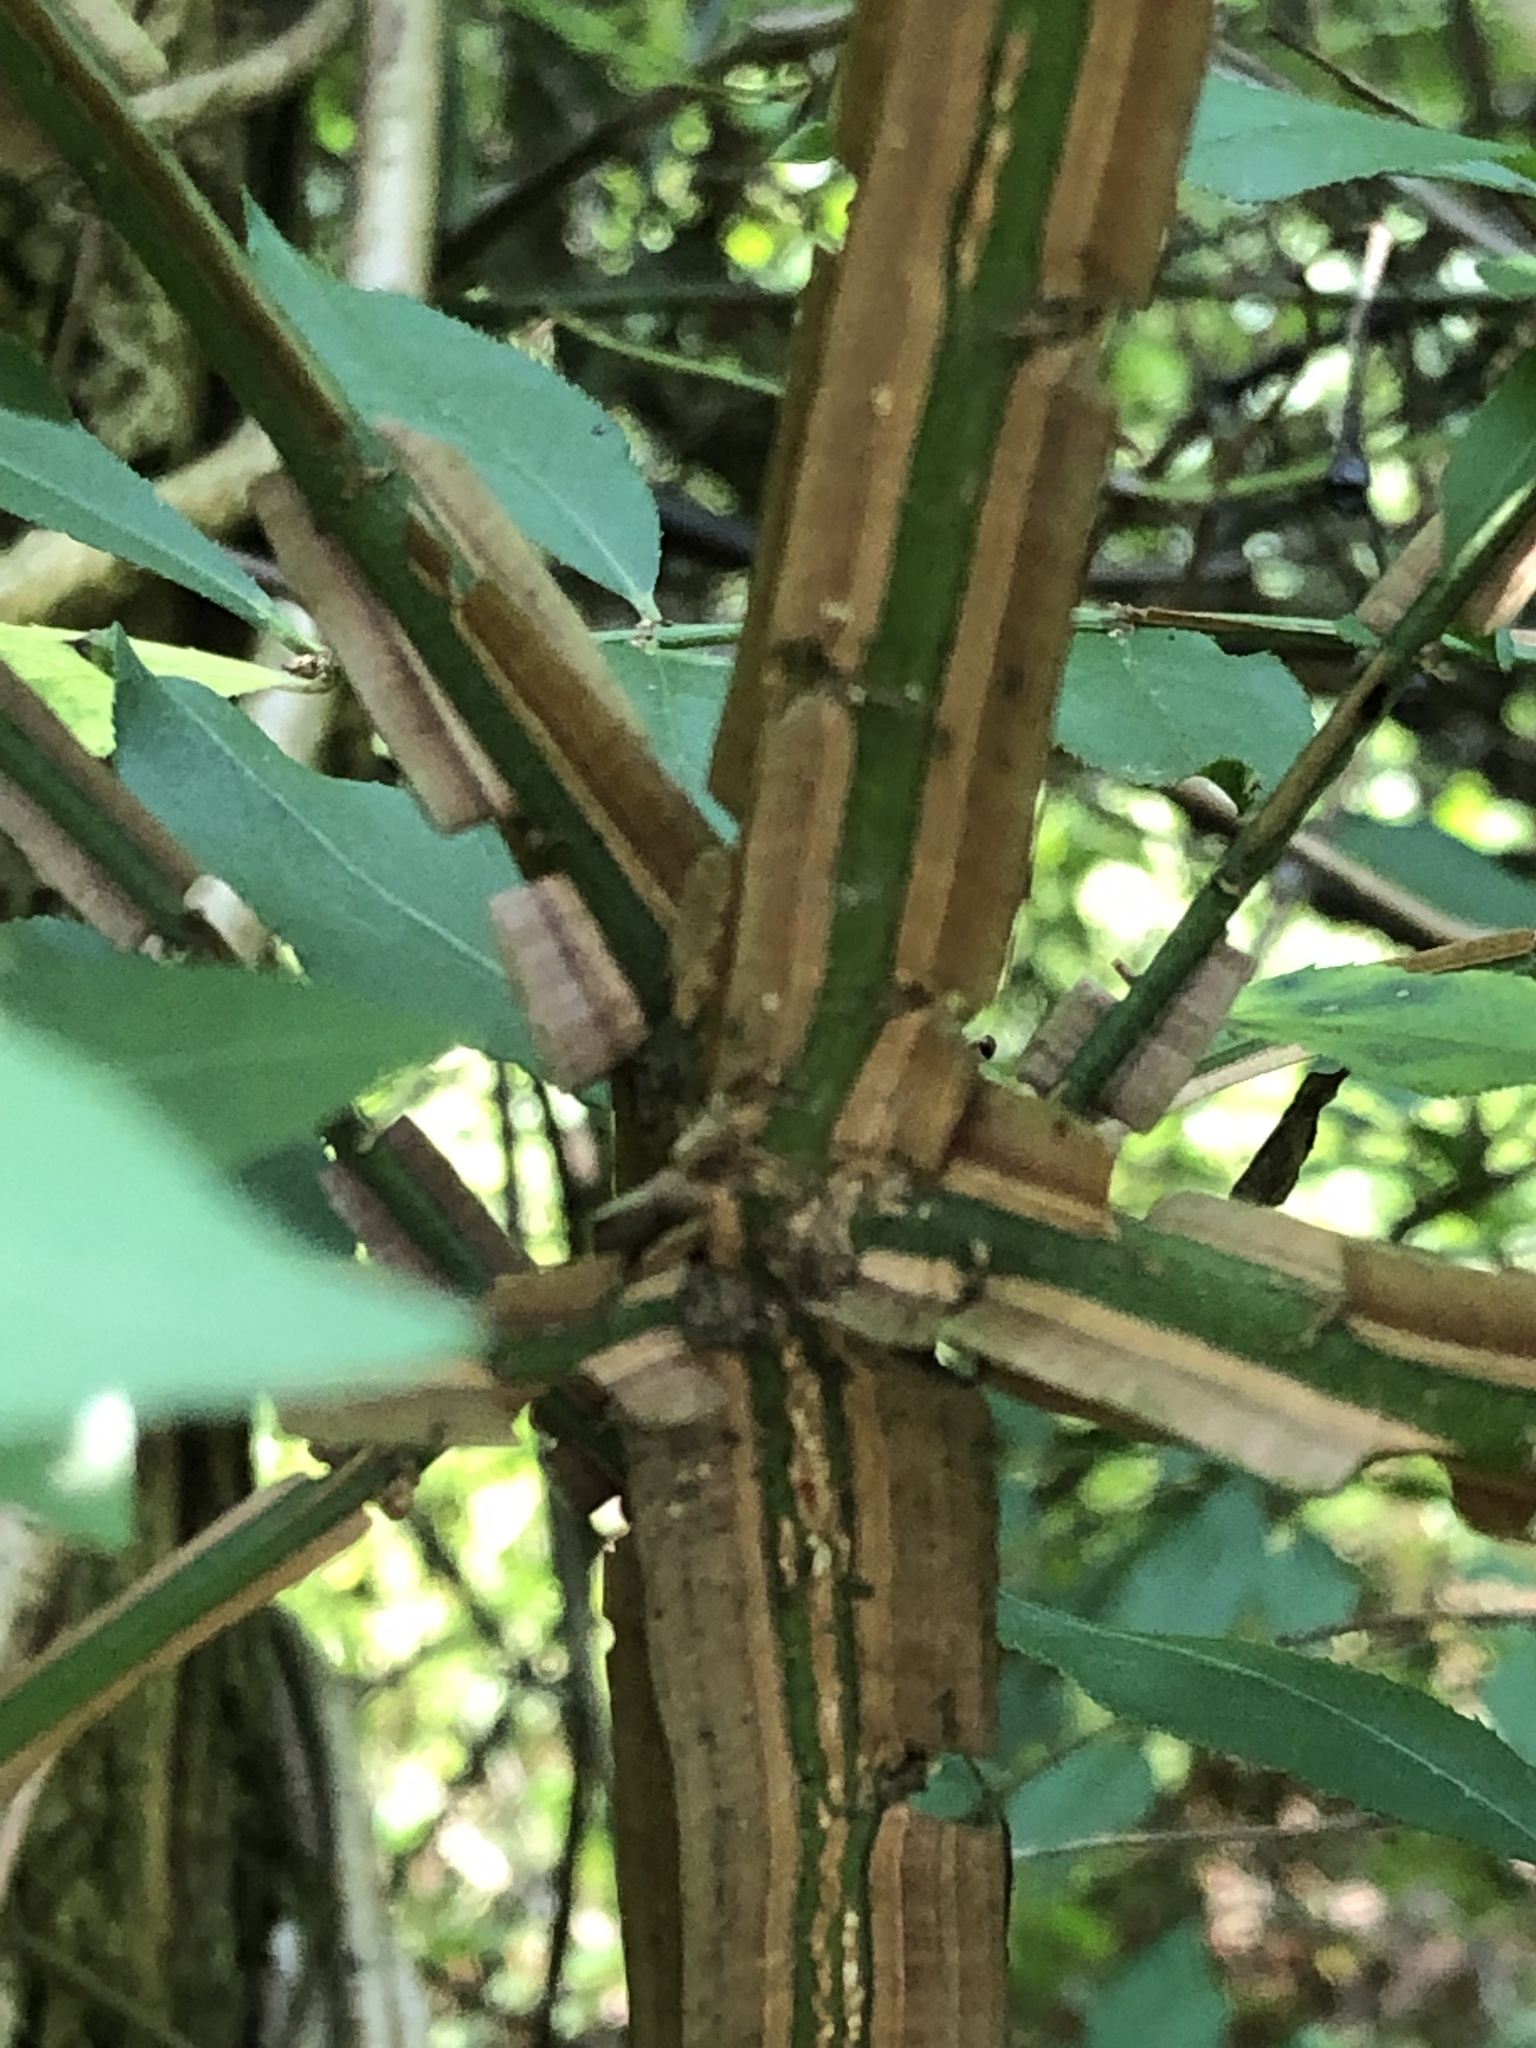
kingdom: Plantae
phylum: Tracheophyta
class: Magnoliopsida
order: Celastrales
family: Celastraceae
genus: Euonymus
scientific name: Euonymus alatus
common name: Winged euonymus
